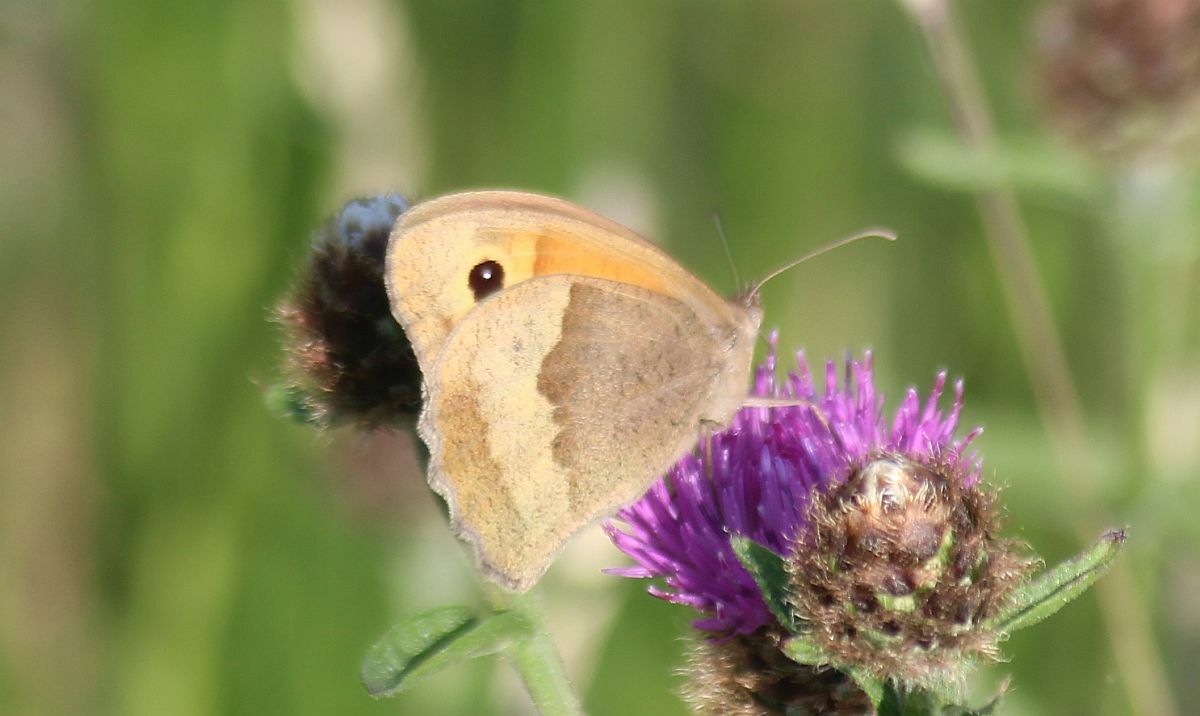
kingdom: Animalia
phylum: Arthropoda
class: Insecta
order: Lepidoptera
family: Nymphalidae
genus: Maniola
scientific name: Maniola jurtina
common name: Meadow brown
